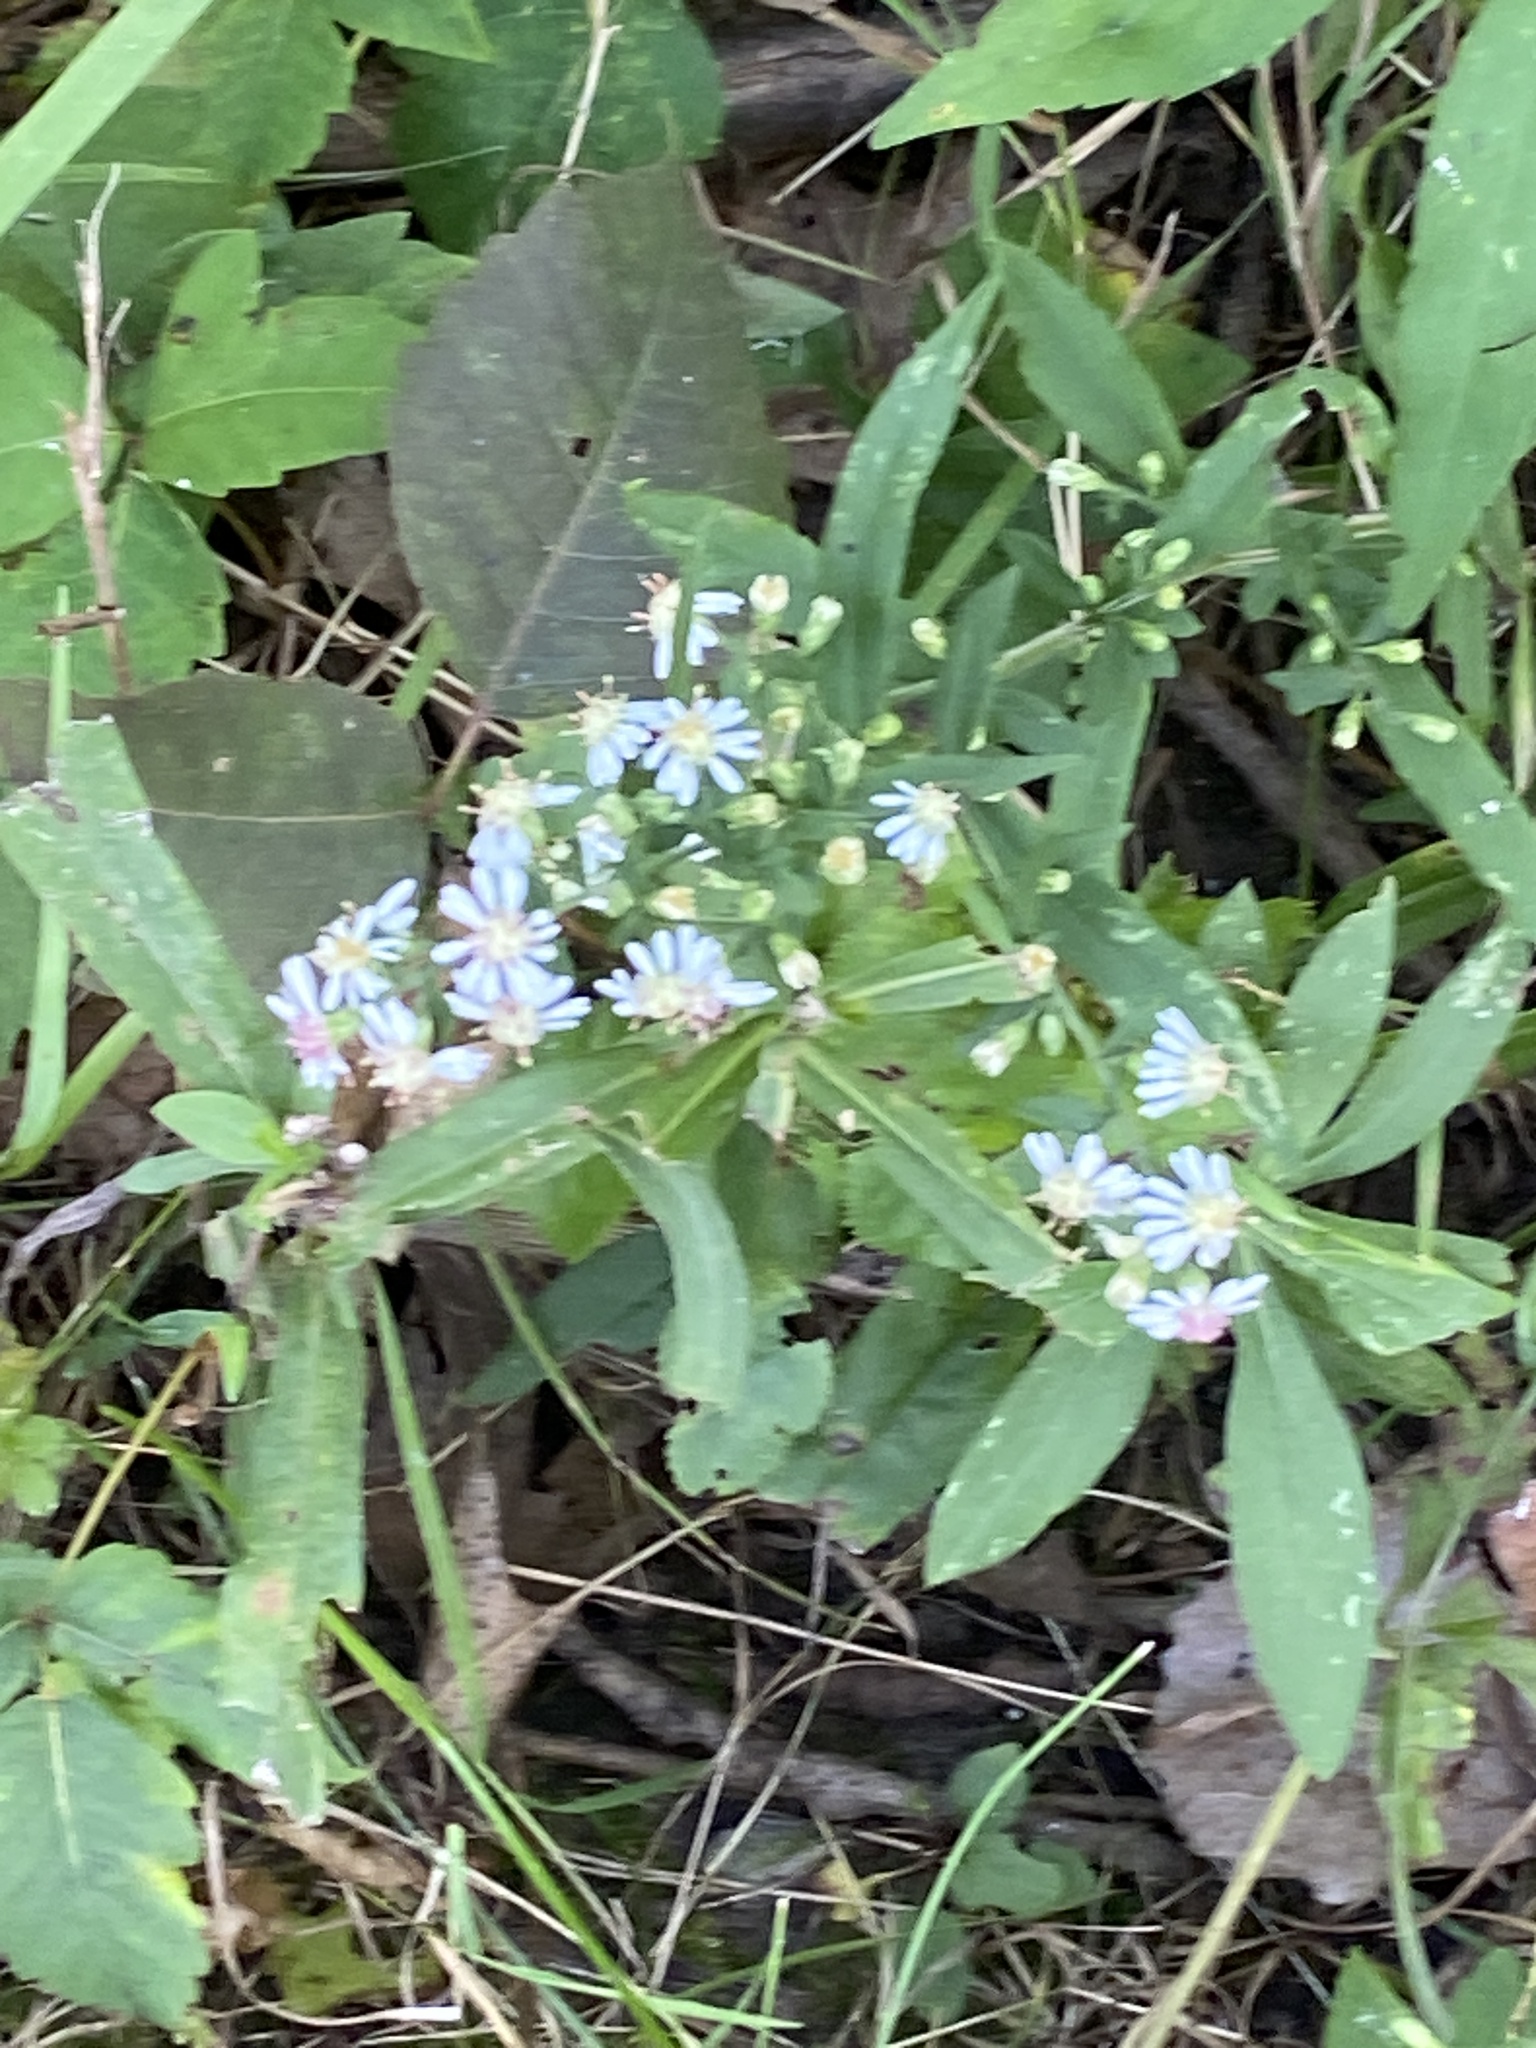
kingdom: Plantae
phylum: Tracheophyta
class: Magnoliopsida
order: Asterales
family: Asteraceae
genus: Symphyotrichum
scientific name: Symphyotrichum lateriflorum
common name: Calico aster
